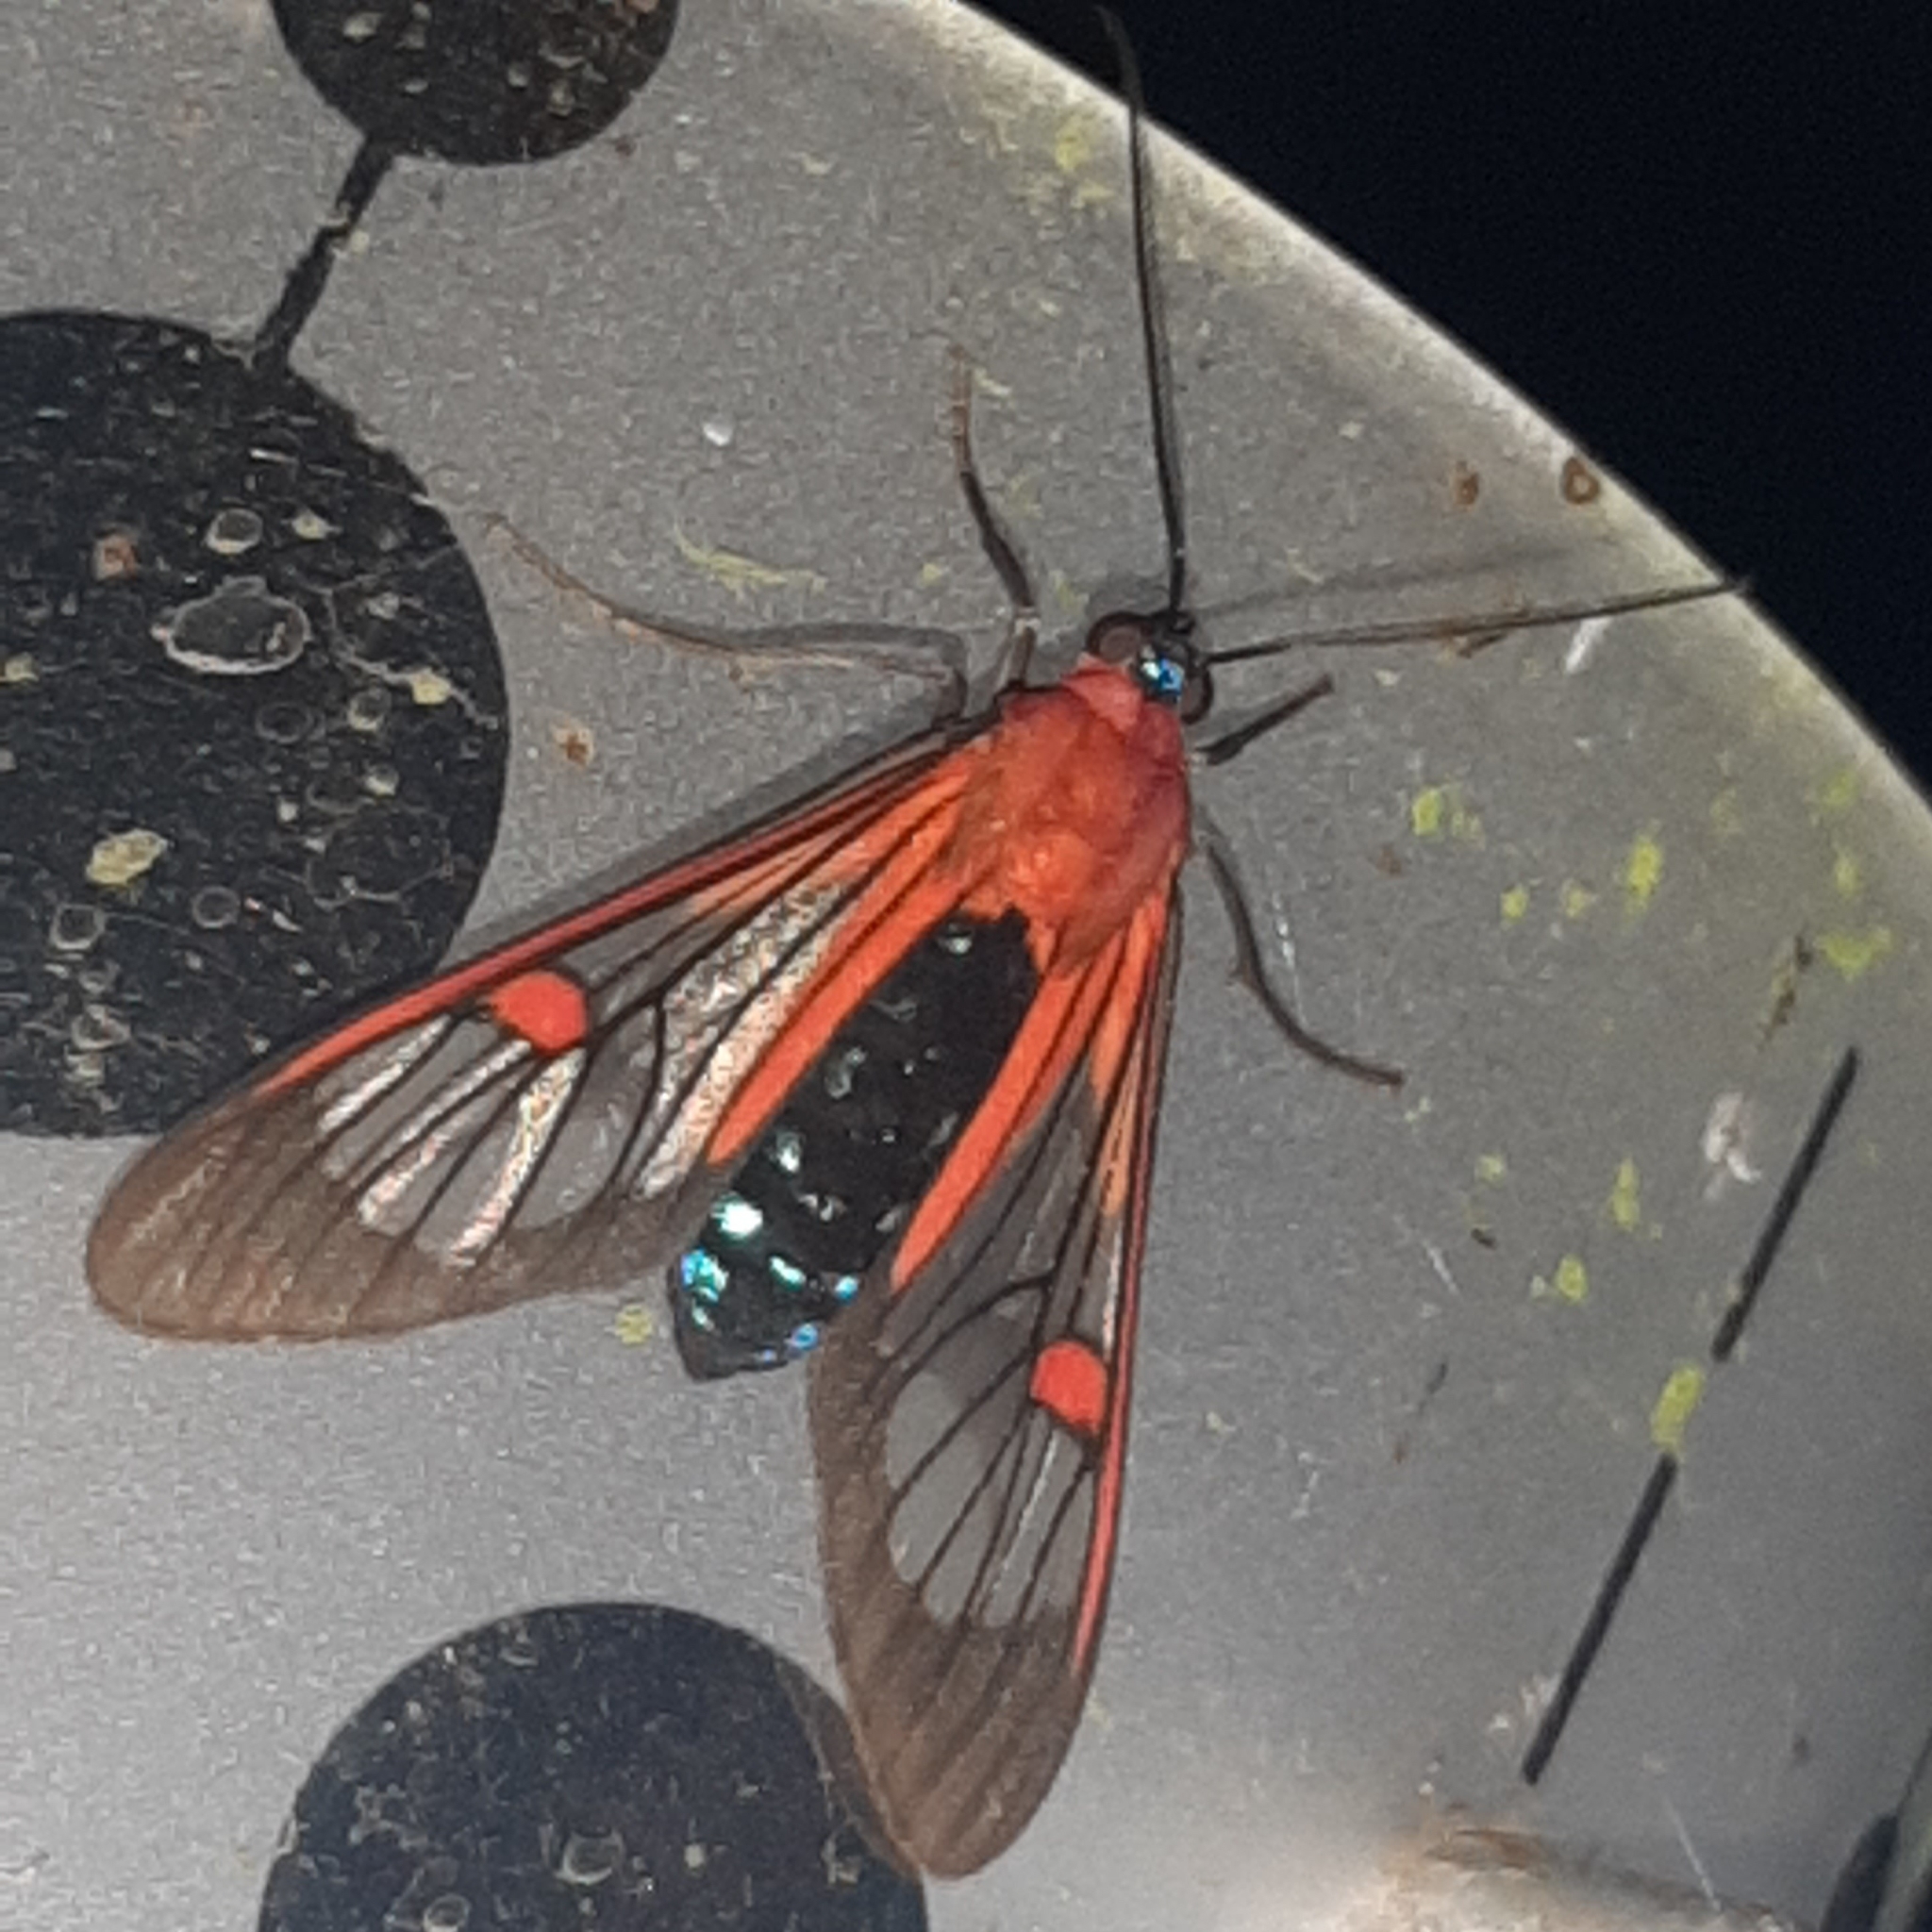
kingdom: Animalia
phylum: Arthropoda
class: Insecta
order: Lepidoptera
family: Erebidae
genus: Lepidoneiva
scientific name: Lepidoneiva teuthras
